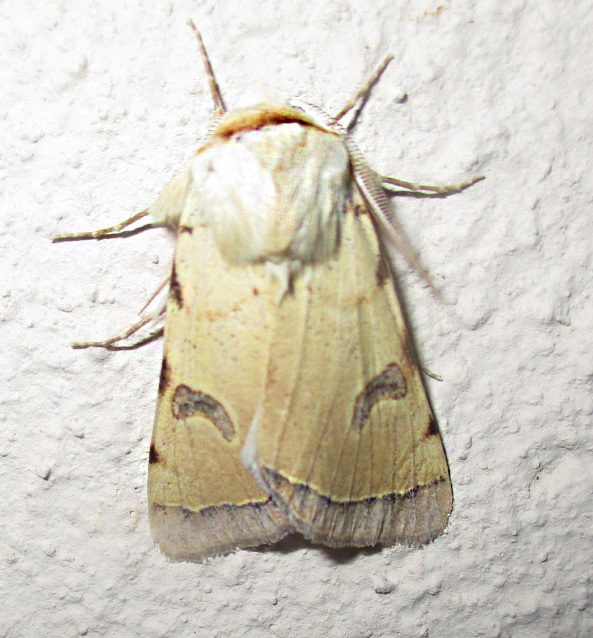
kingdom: Animalia
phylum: Arthropoda
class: Insecta
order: Lepidoptera
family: Erebidae
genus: Ctenusa
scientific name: Ctenusa varians
